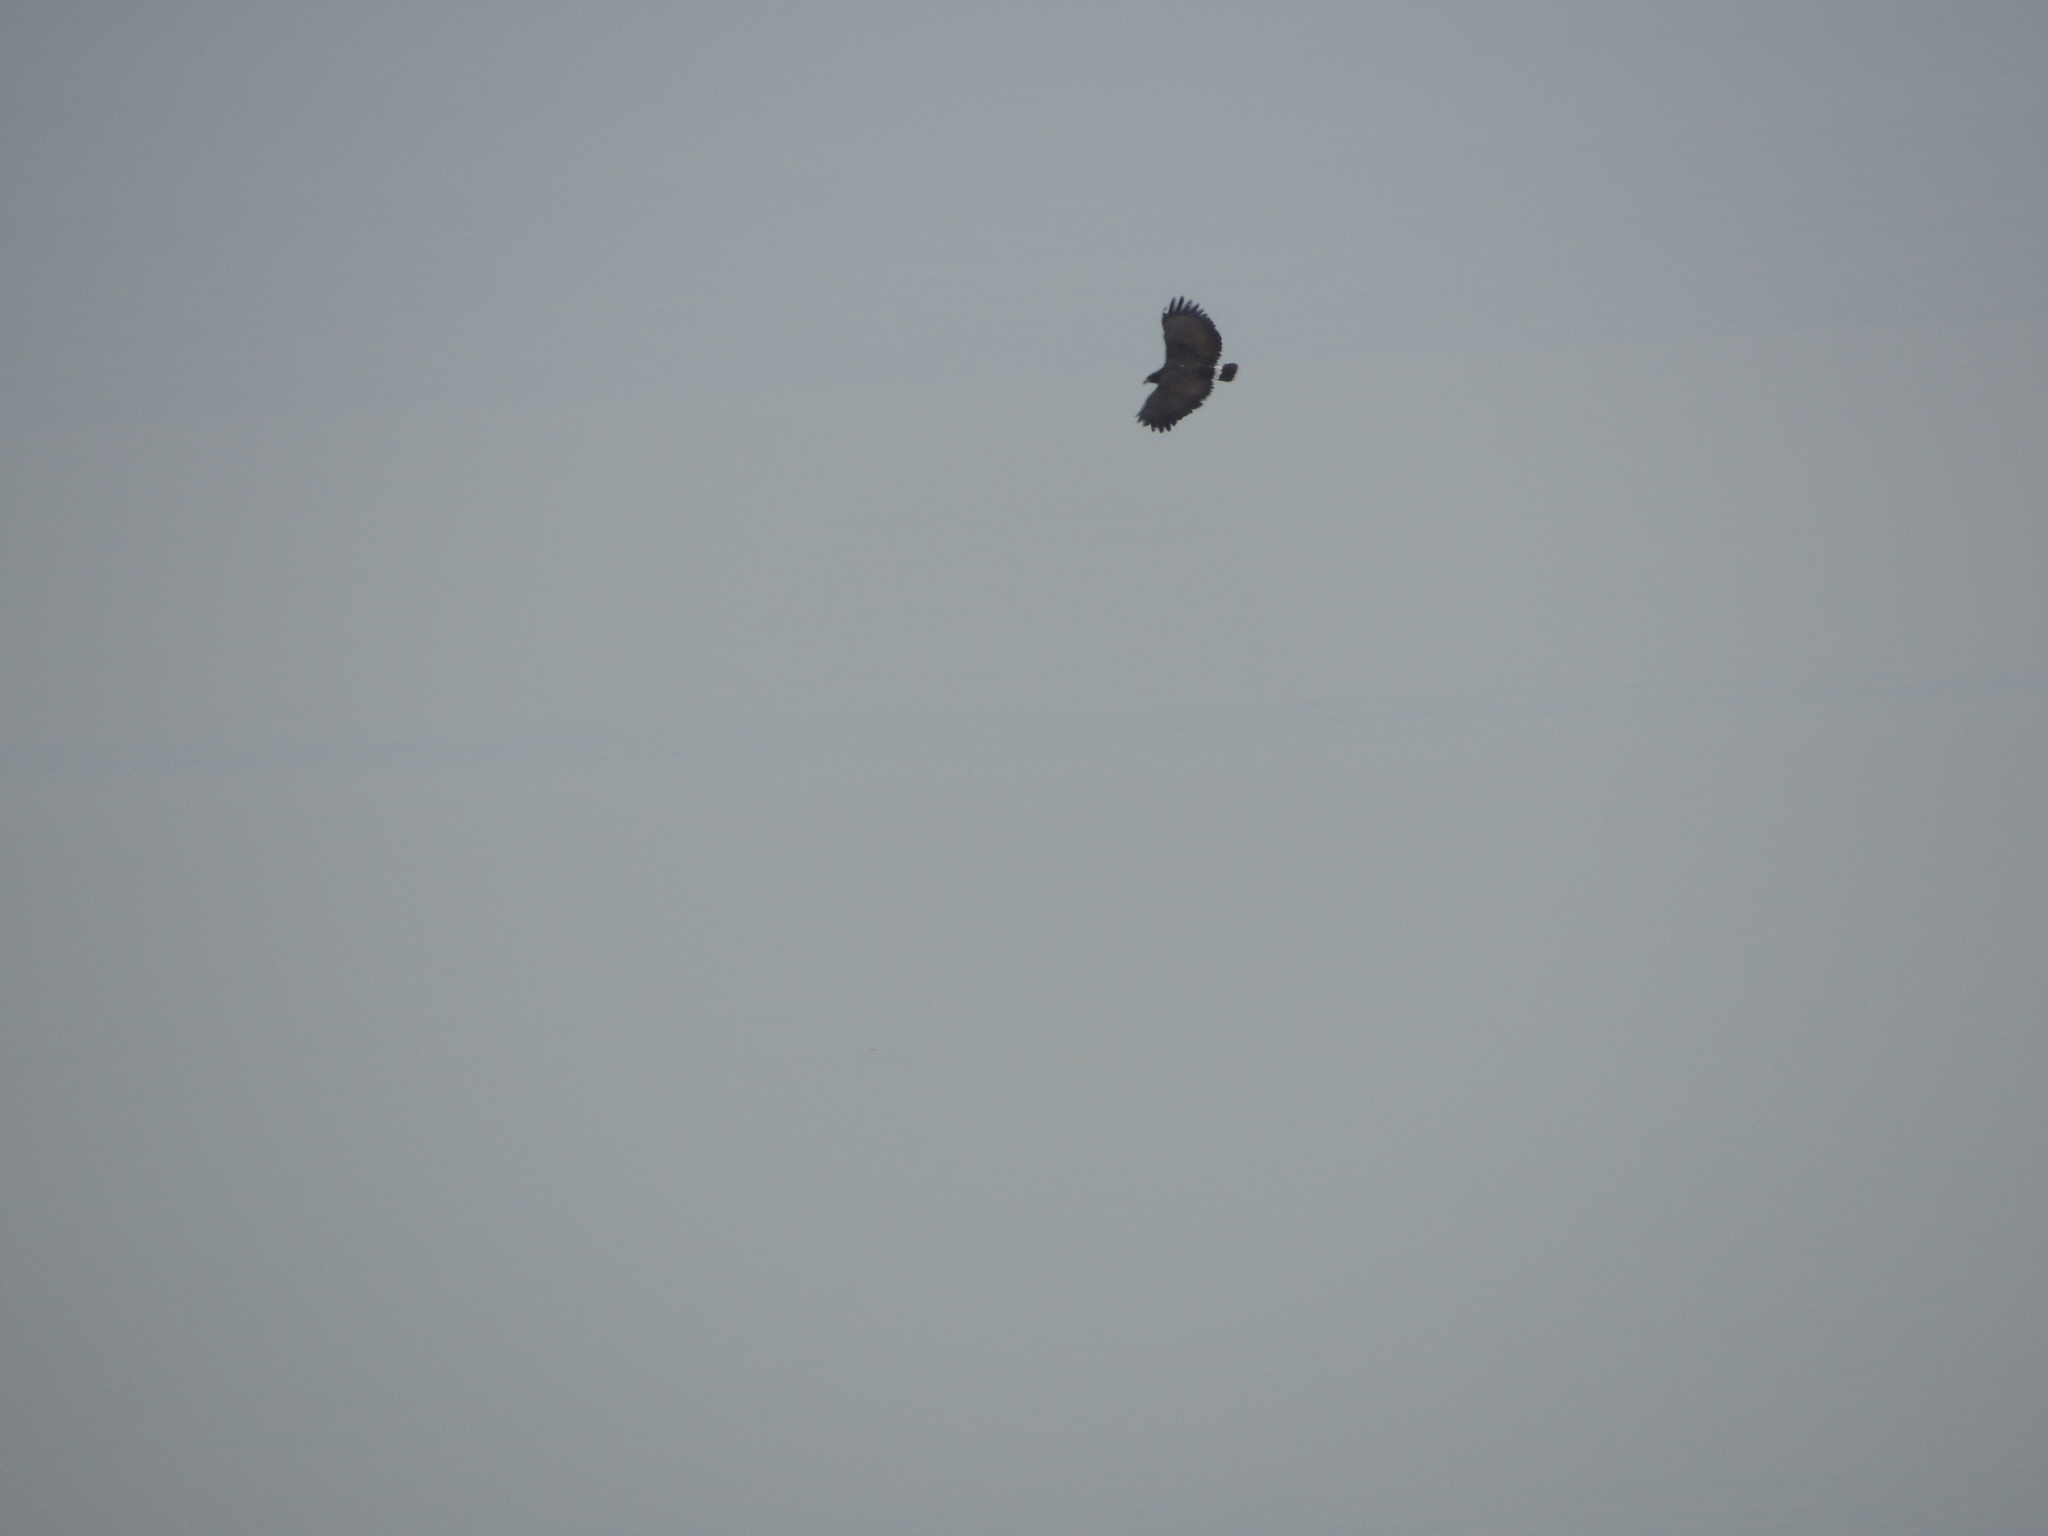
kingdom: Animalia
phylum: Chordata
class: Aves
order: Accipitriformes
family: Accipitridae
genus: Buteogallus
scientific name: Buteogallus anthracinus
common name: Common black hawk
